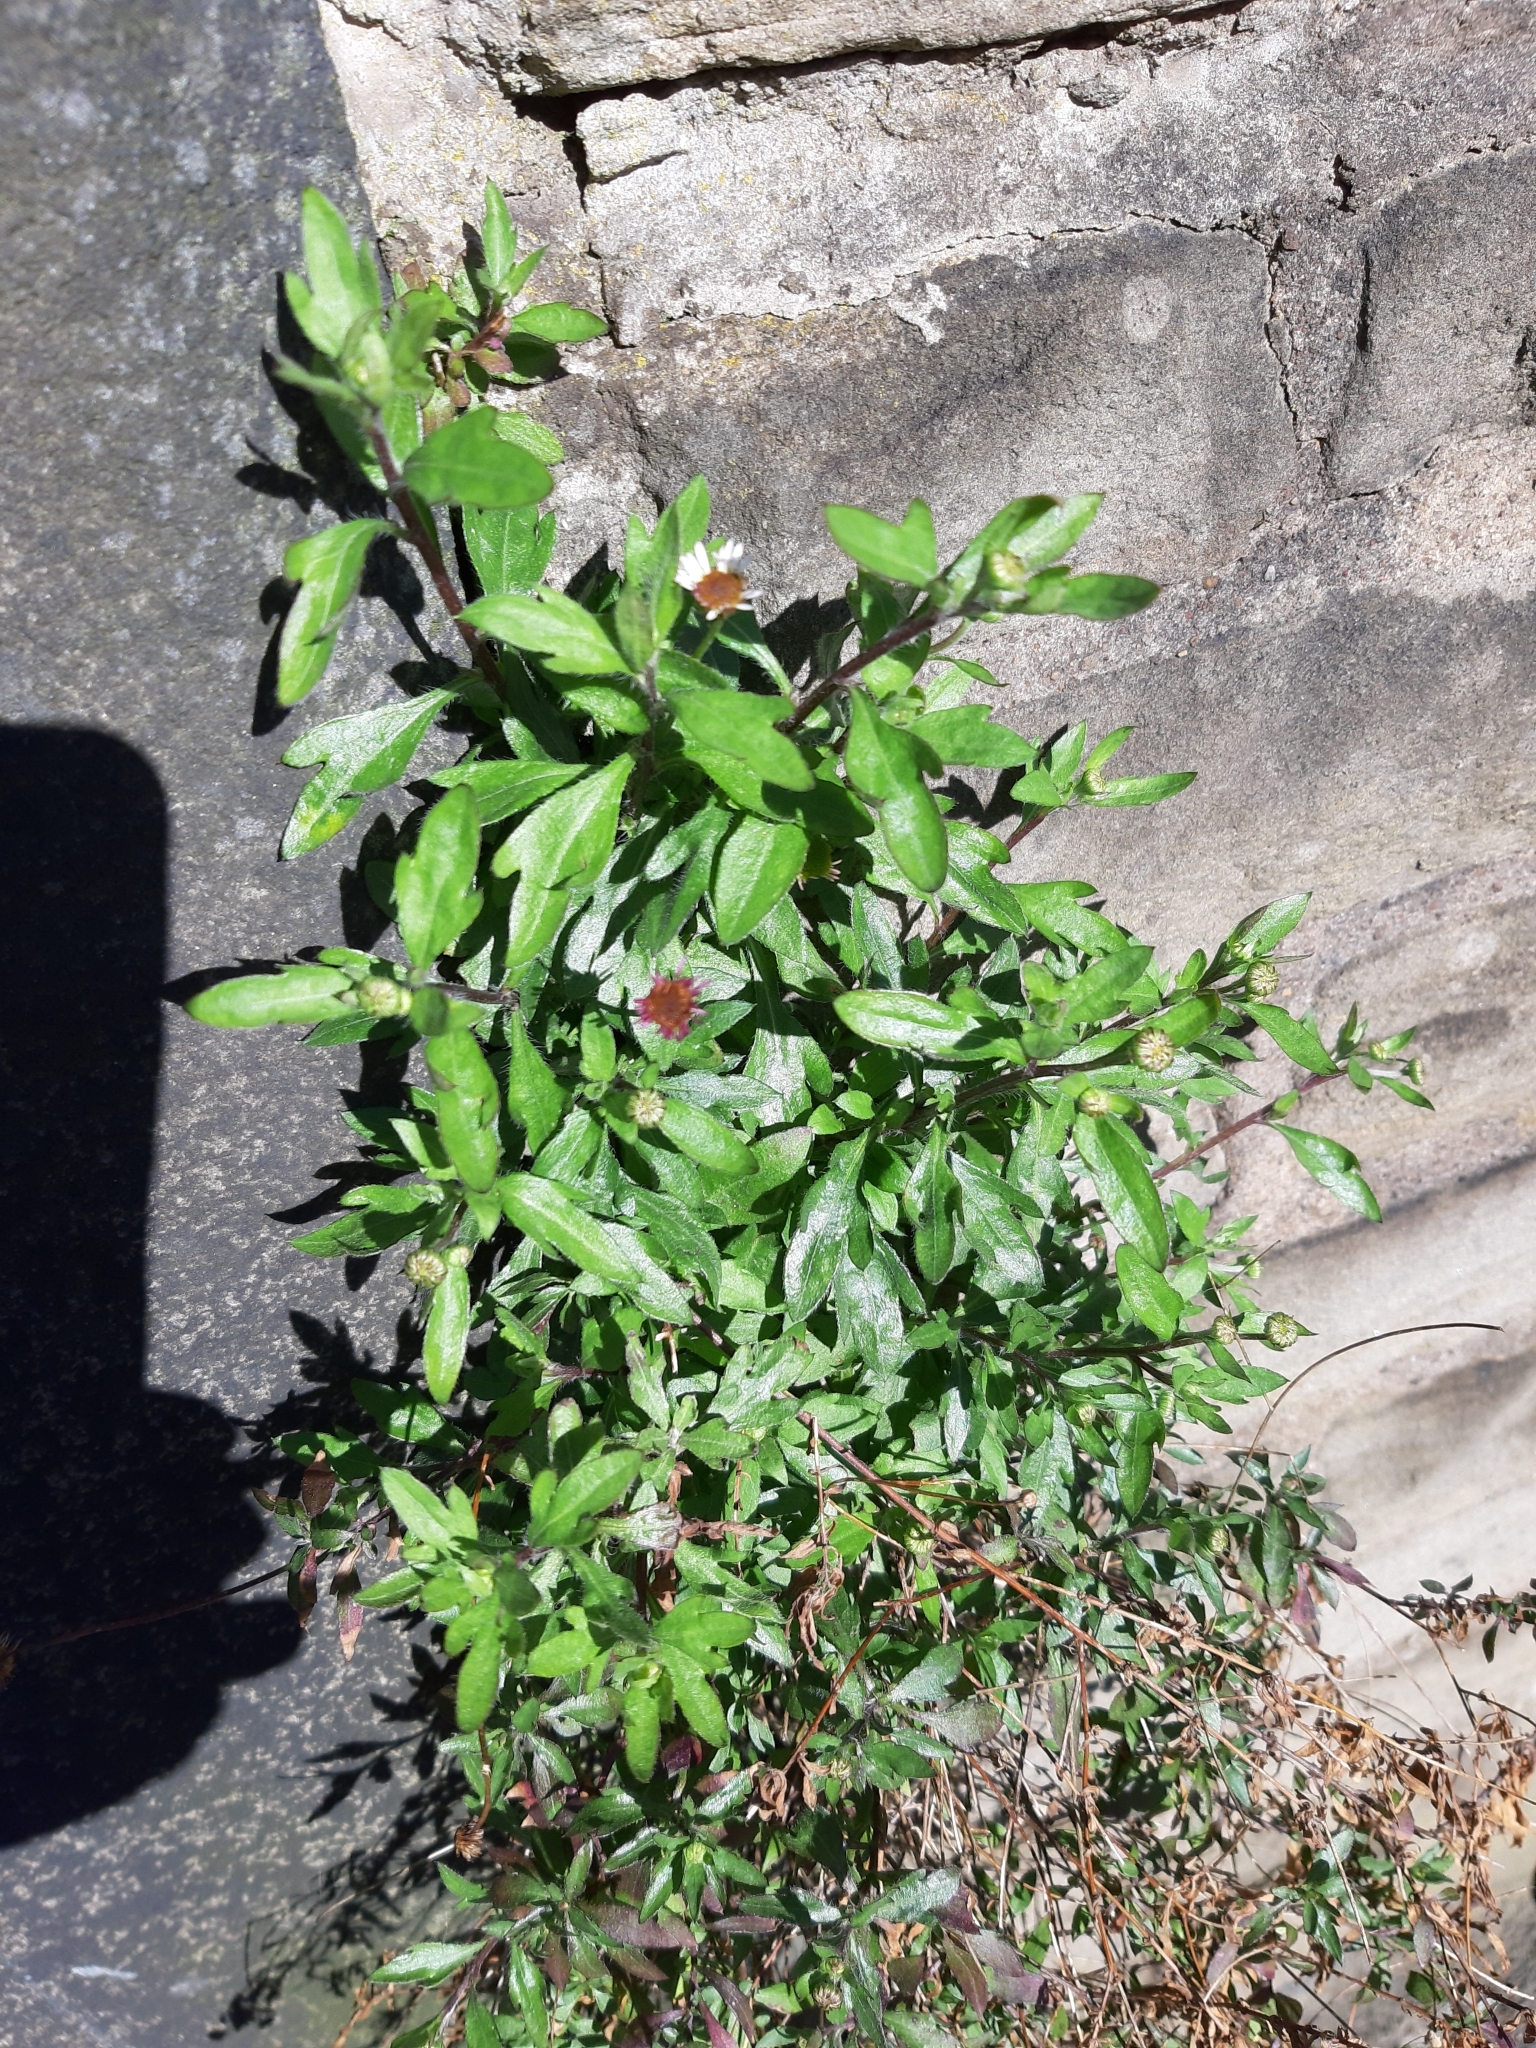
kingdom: Plantae
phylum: Tracheophyta
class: Magnoliopsida
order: Asterales
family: Asteraceae
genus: Erigeron
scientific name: Erigeron karvinskianus
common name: Mexican fleabane
